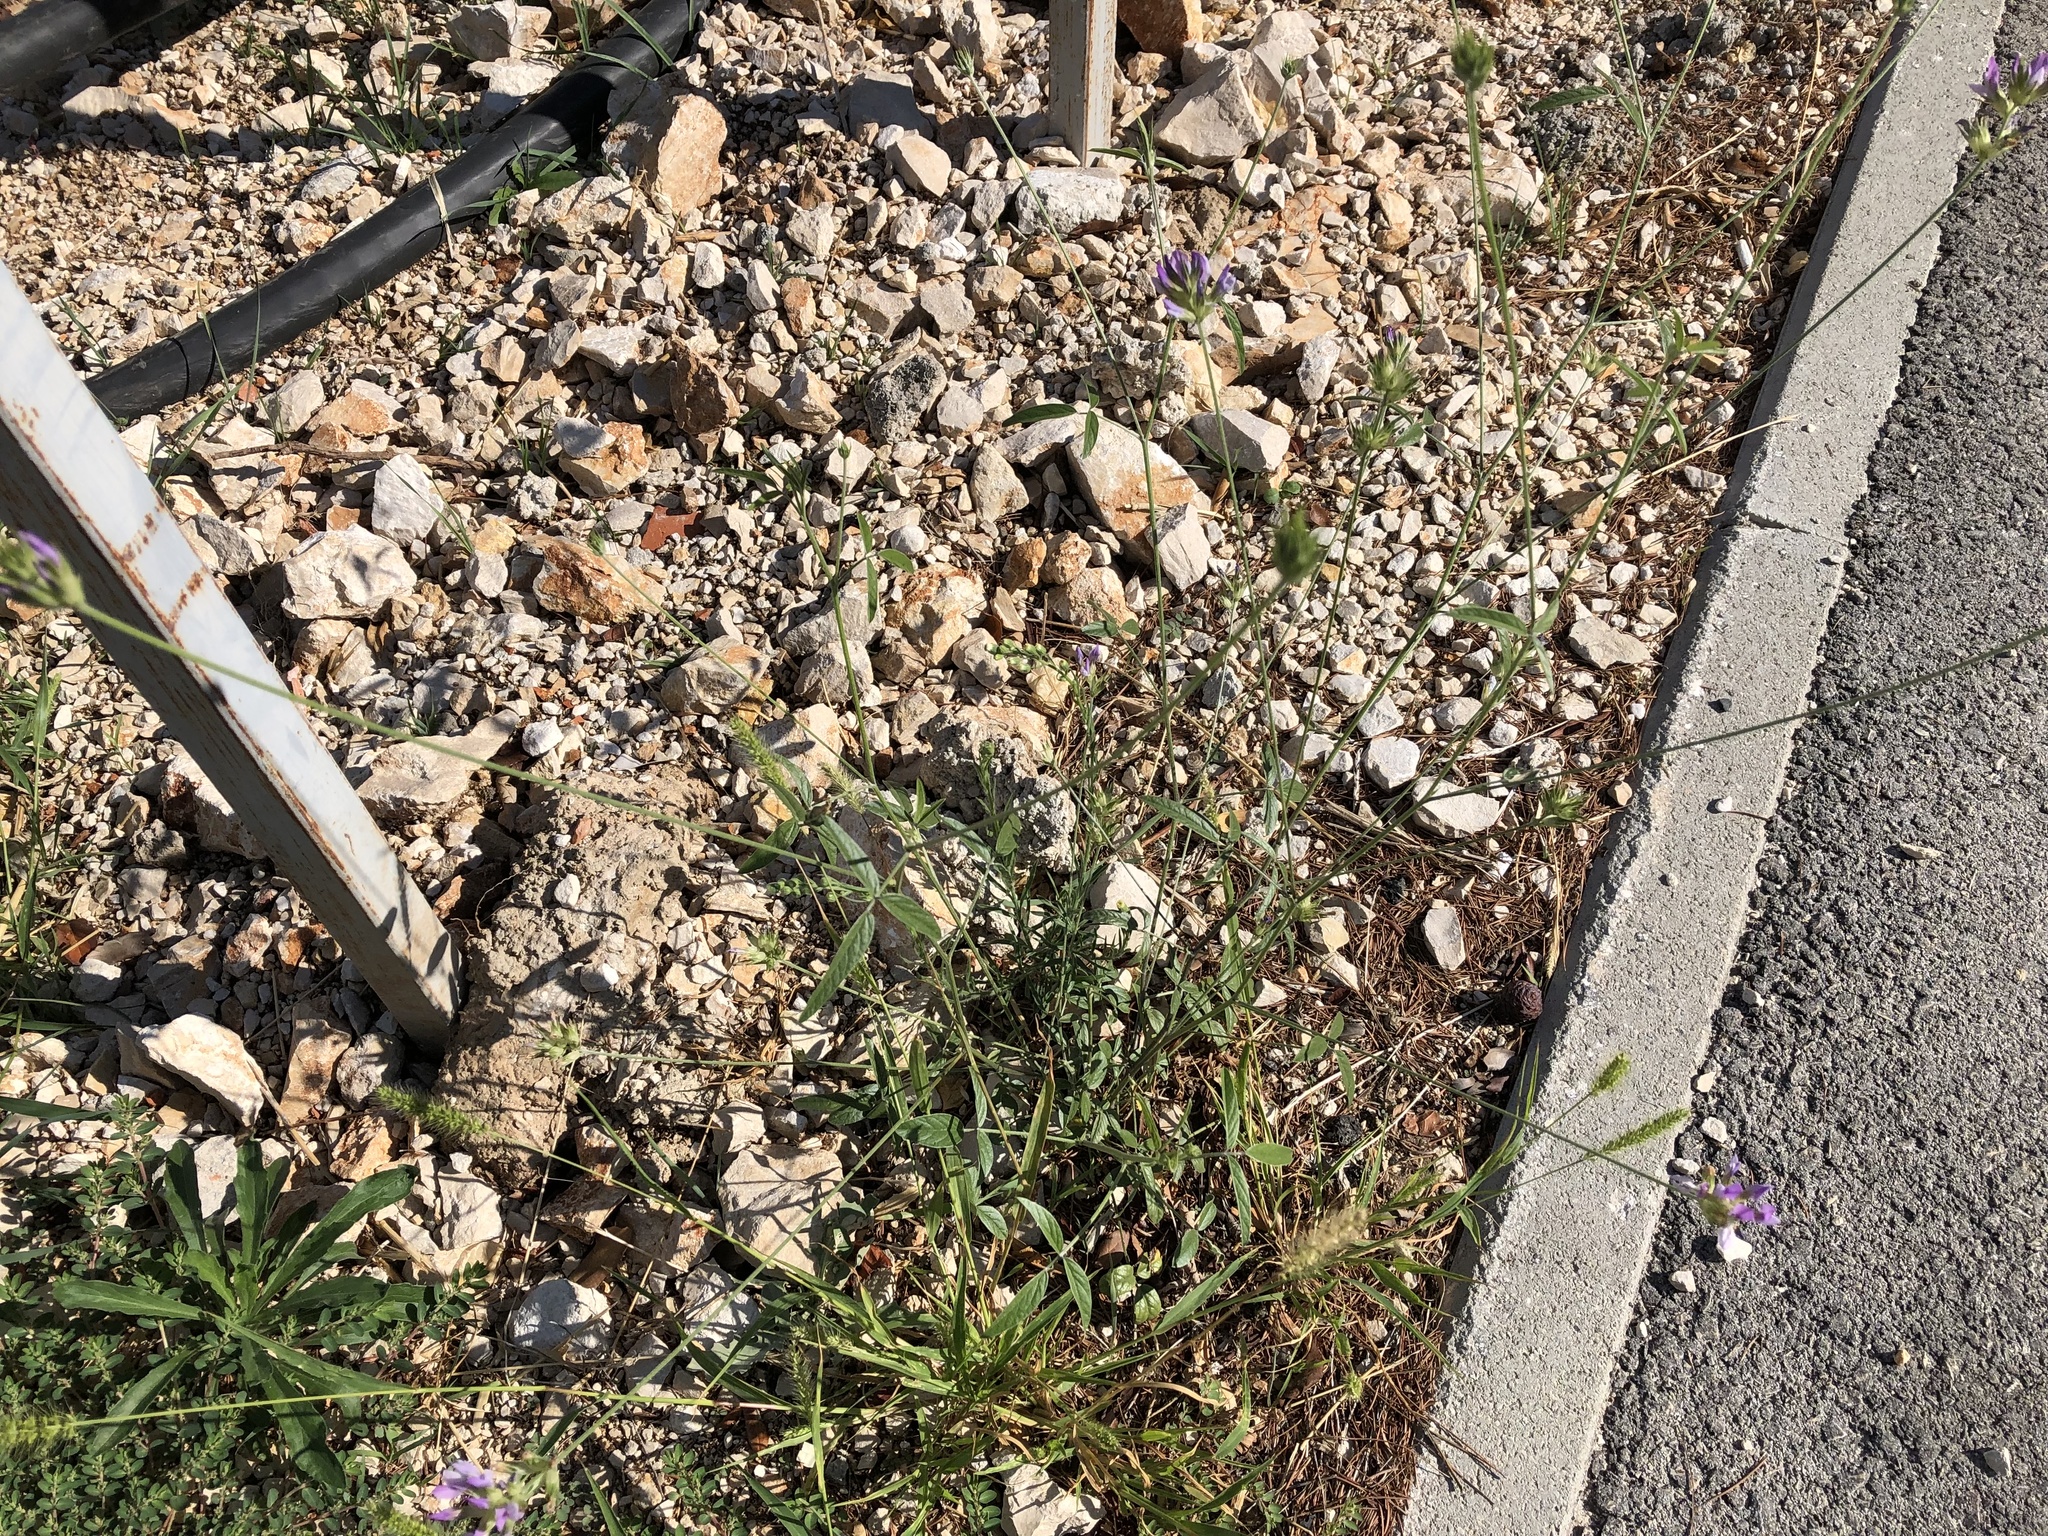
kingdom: Plantae
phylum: Tracheophyta
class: Magnoliopsida
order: Fabales
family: Fabaceae
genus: Bituminaria
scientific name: Bituminaria bituminosa
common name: Arabian pea
